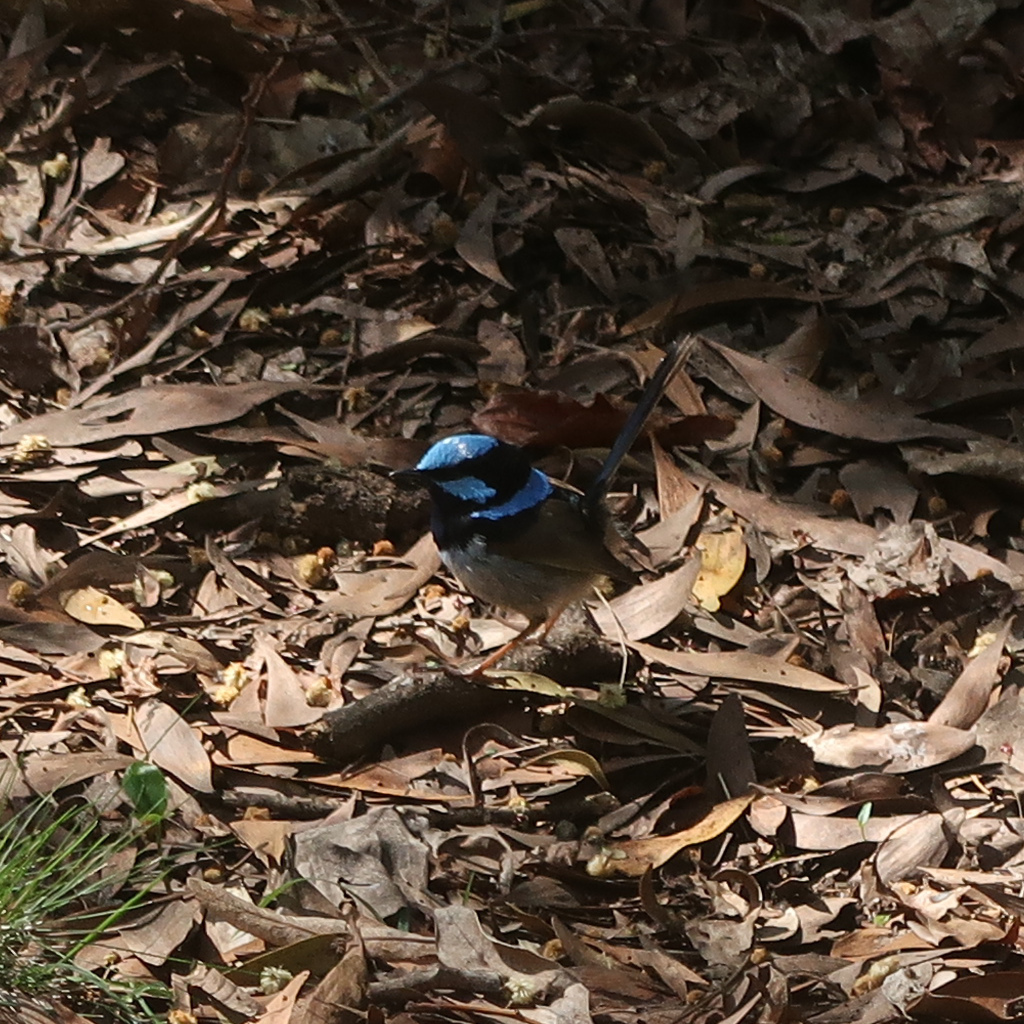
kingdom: Animalia
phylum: Chordata
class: Aves
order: Passeriformes
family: Maluridae
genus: Malurus
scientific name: Malurus cyaneus
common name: Superb fairywren
